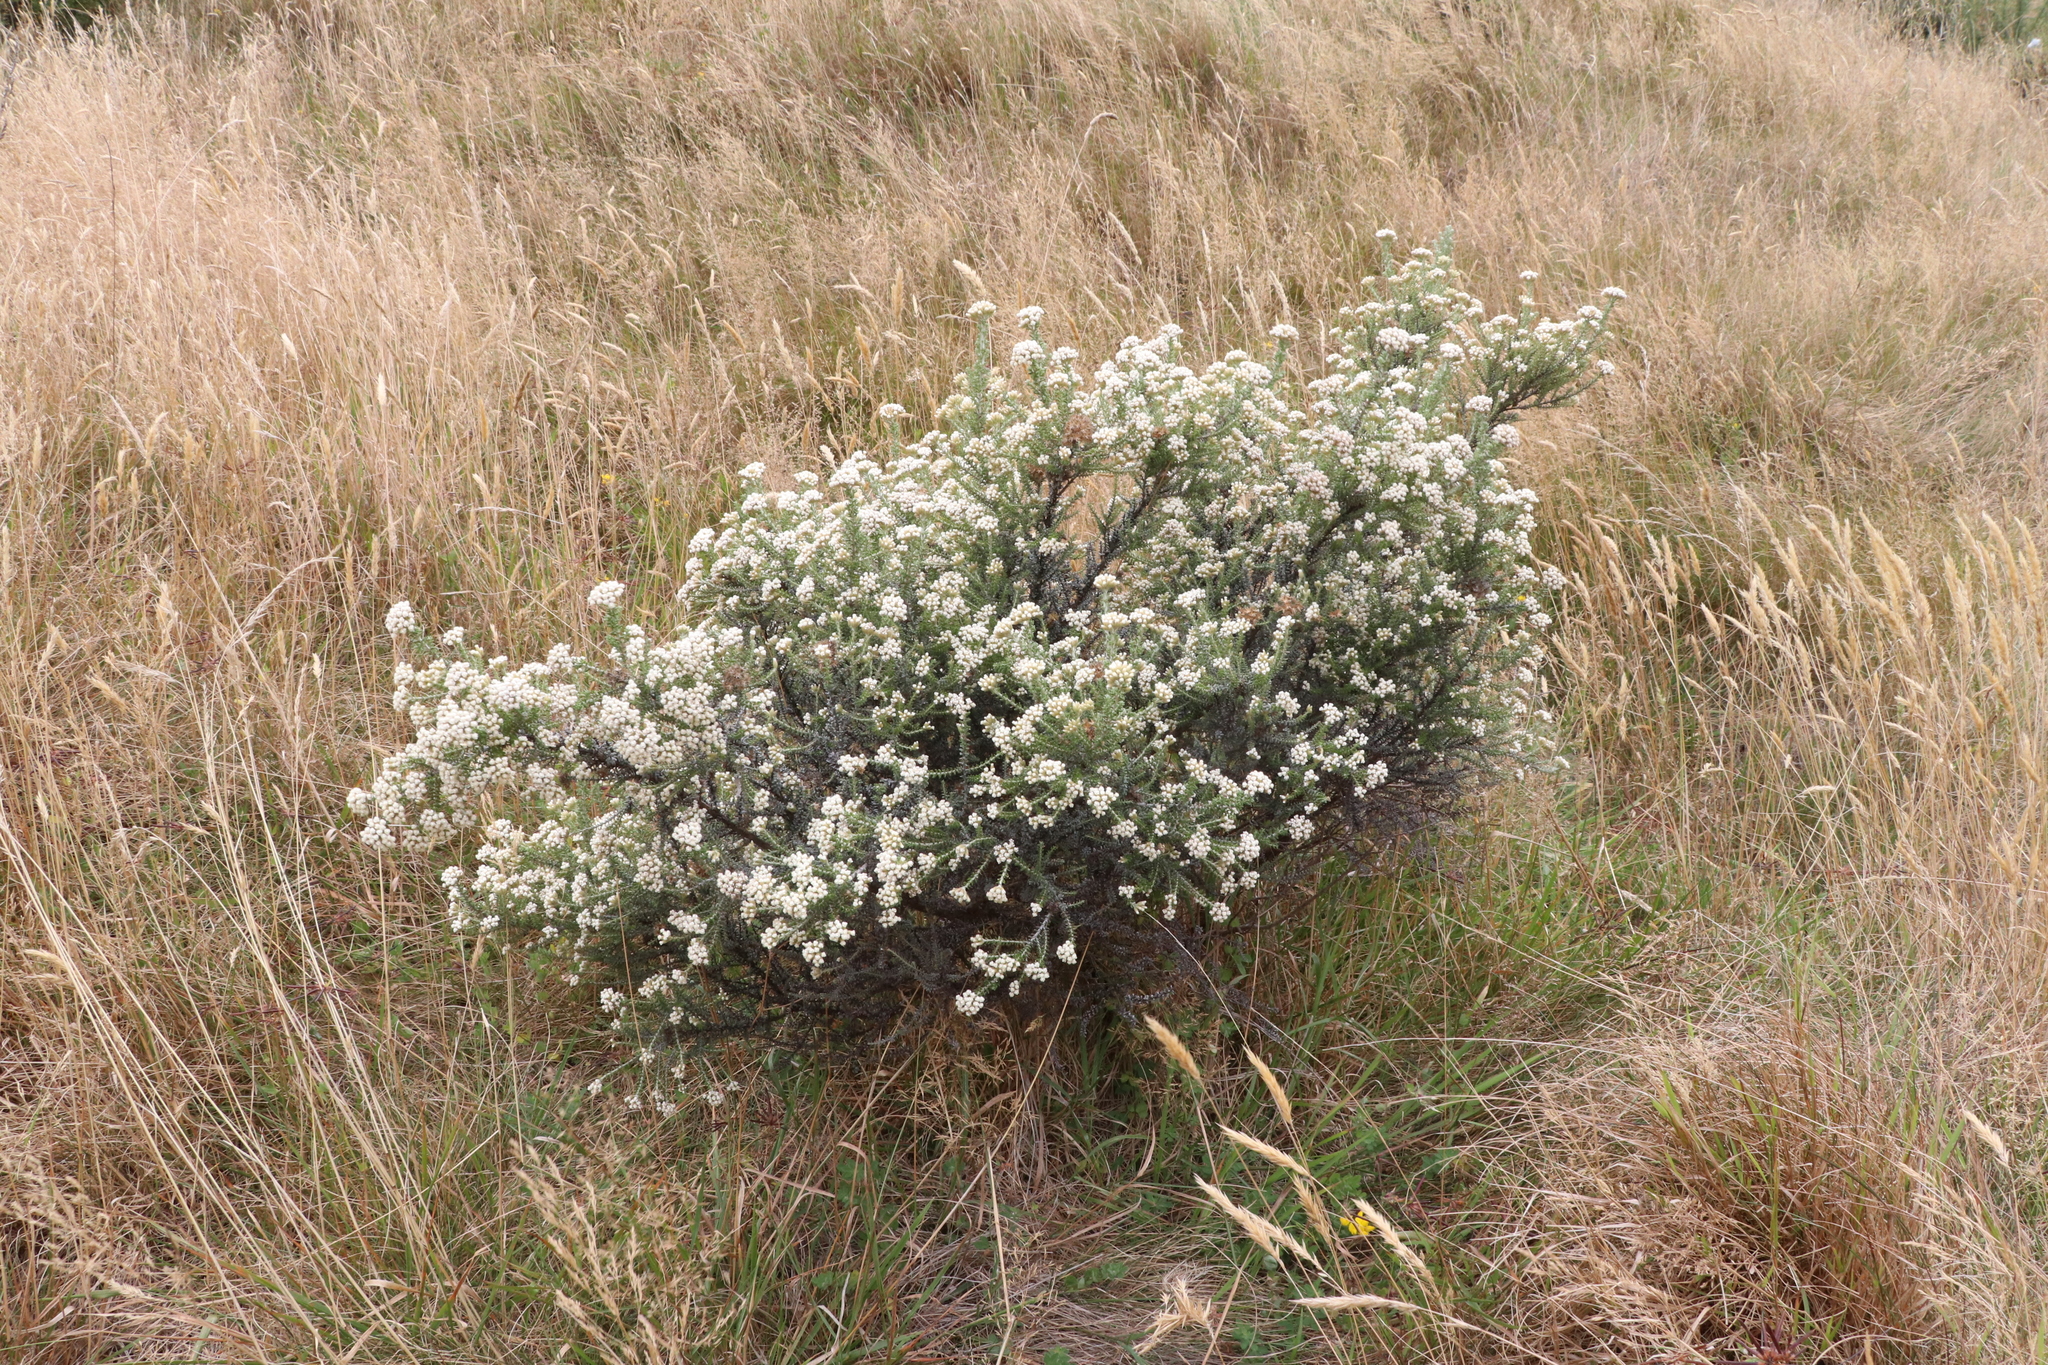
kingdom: Plantae
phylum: Tracheophyta
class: Magnoliopsida
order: Asterales
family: Asteraceae
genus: Ozothamnus
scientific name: Ozothamnus leptophyllus
